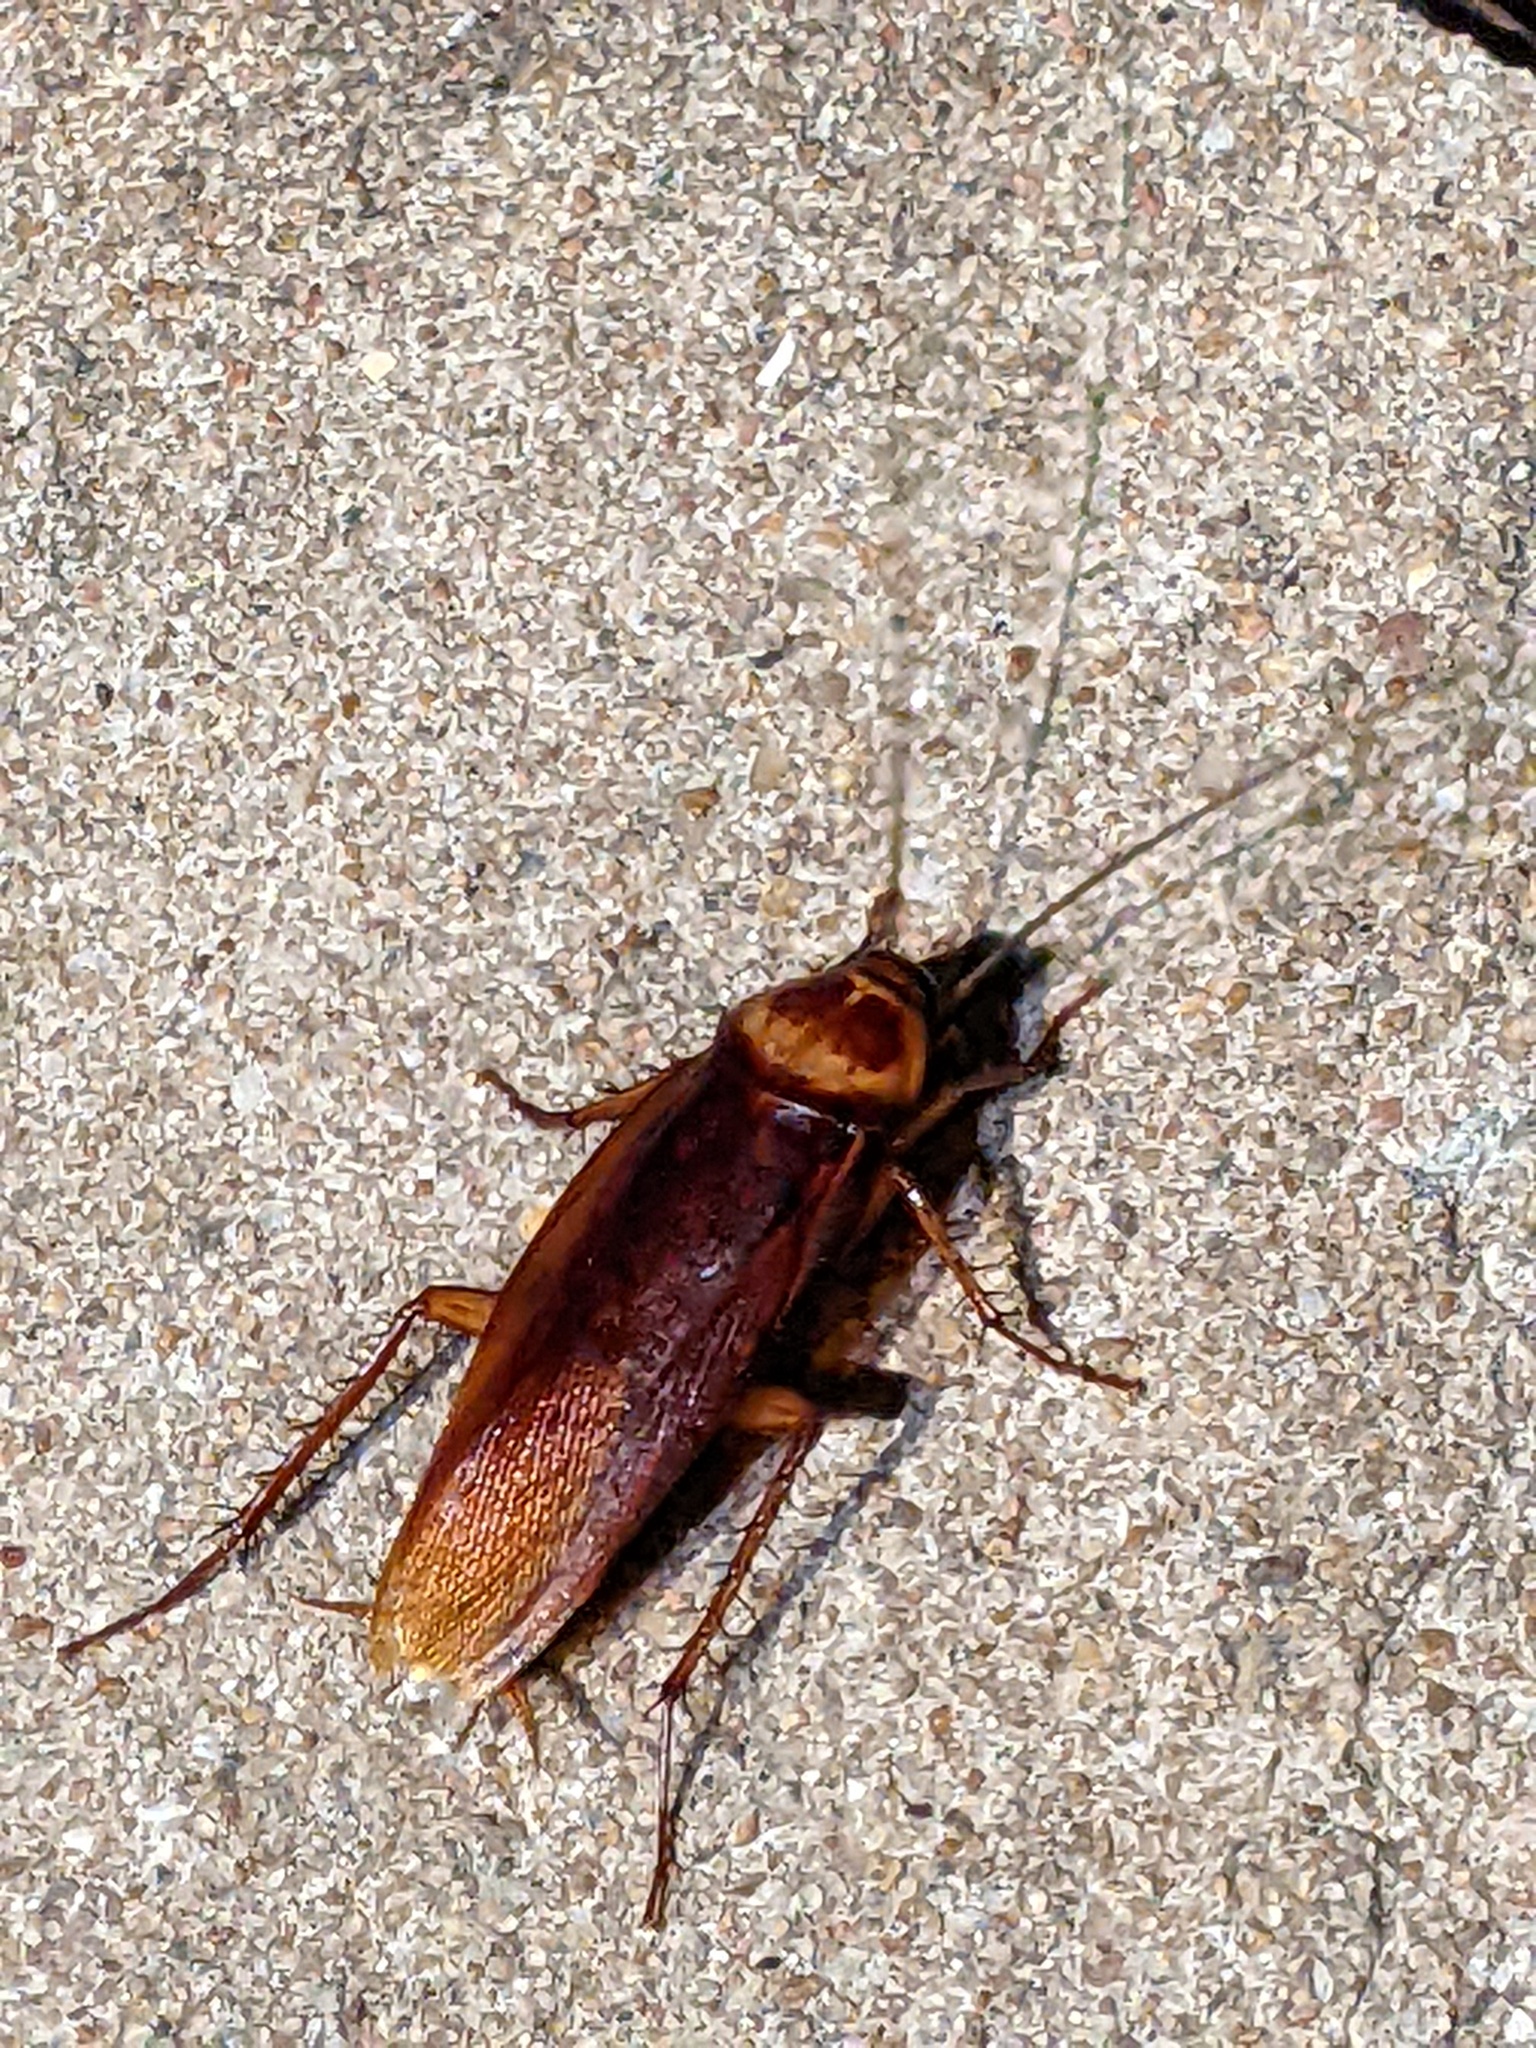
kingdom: Animalia
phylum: Arthropoda
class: Insecta
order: Blattodea
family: Blattidae
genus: Periplaneta
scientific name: Periplaneta americana
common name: American cockroach
